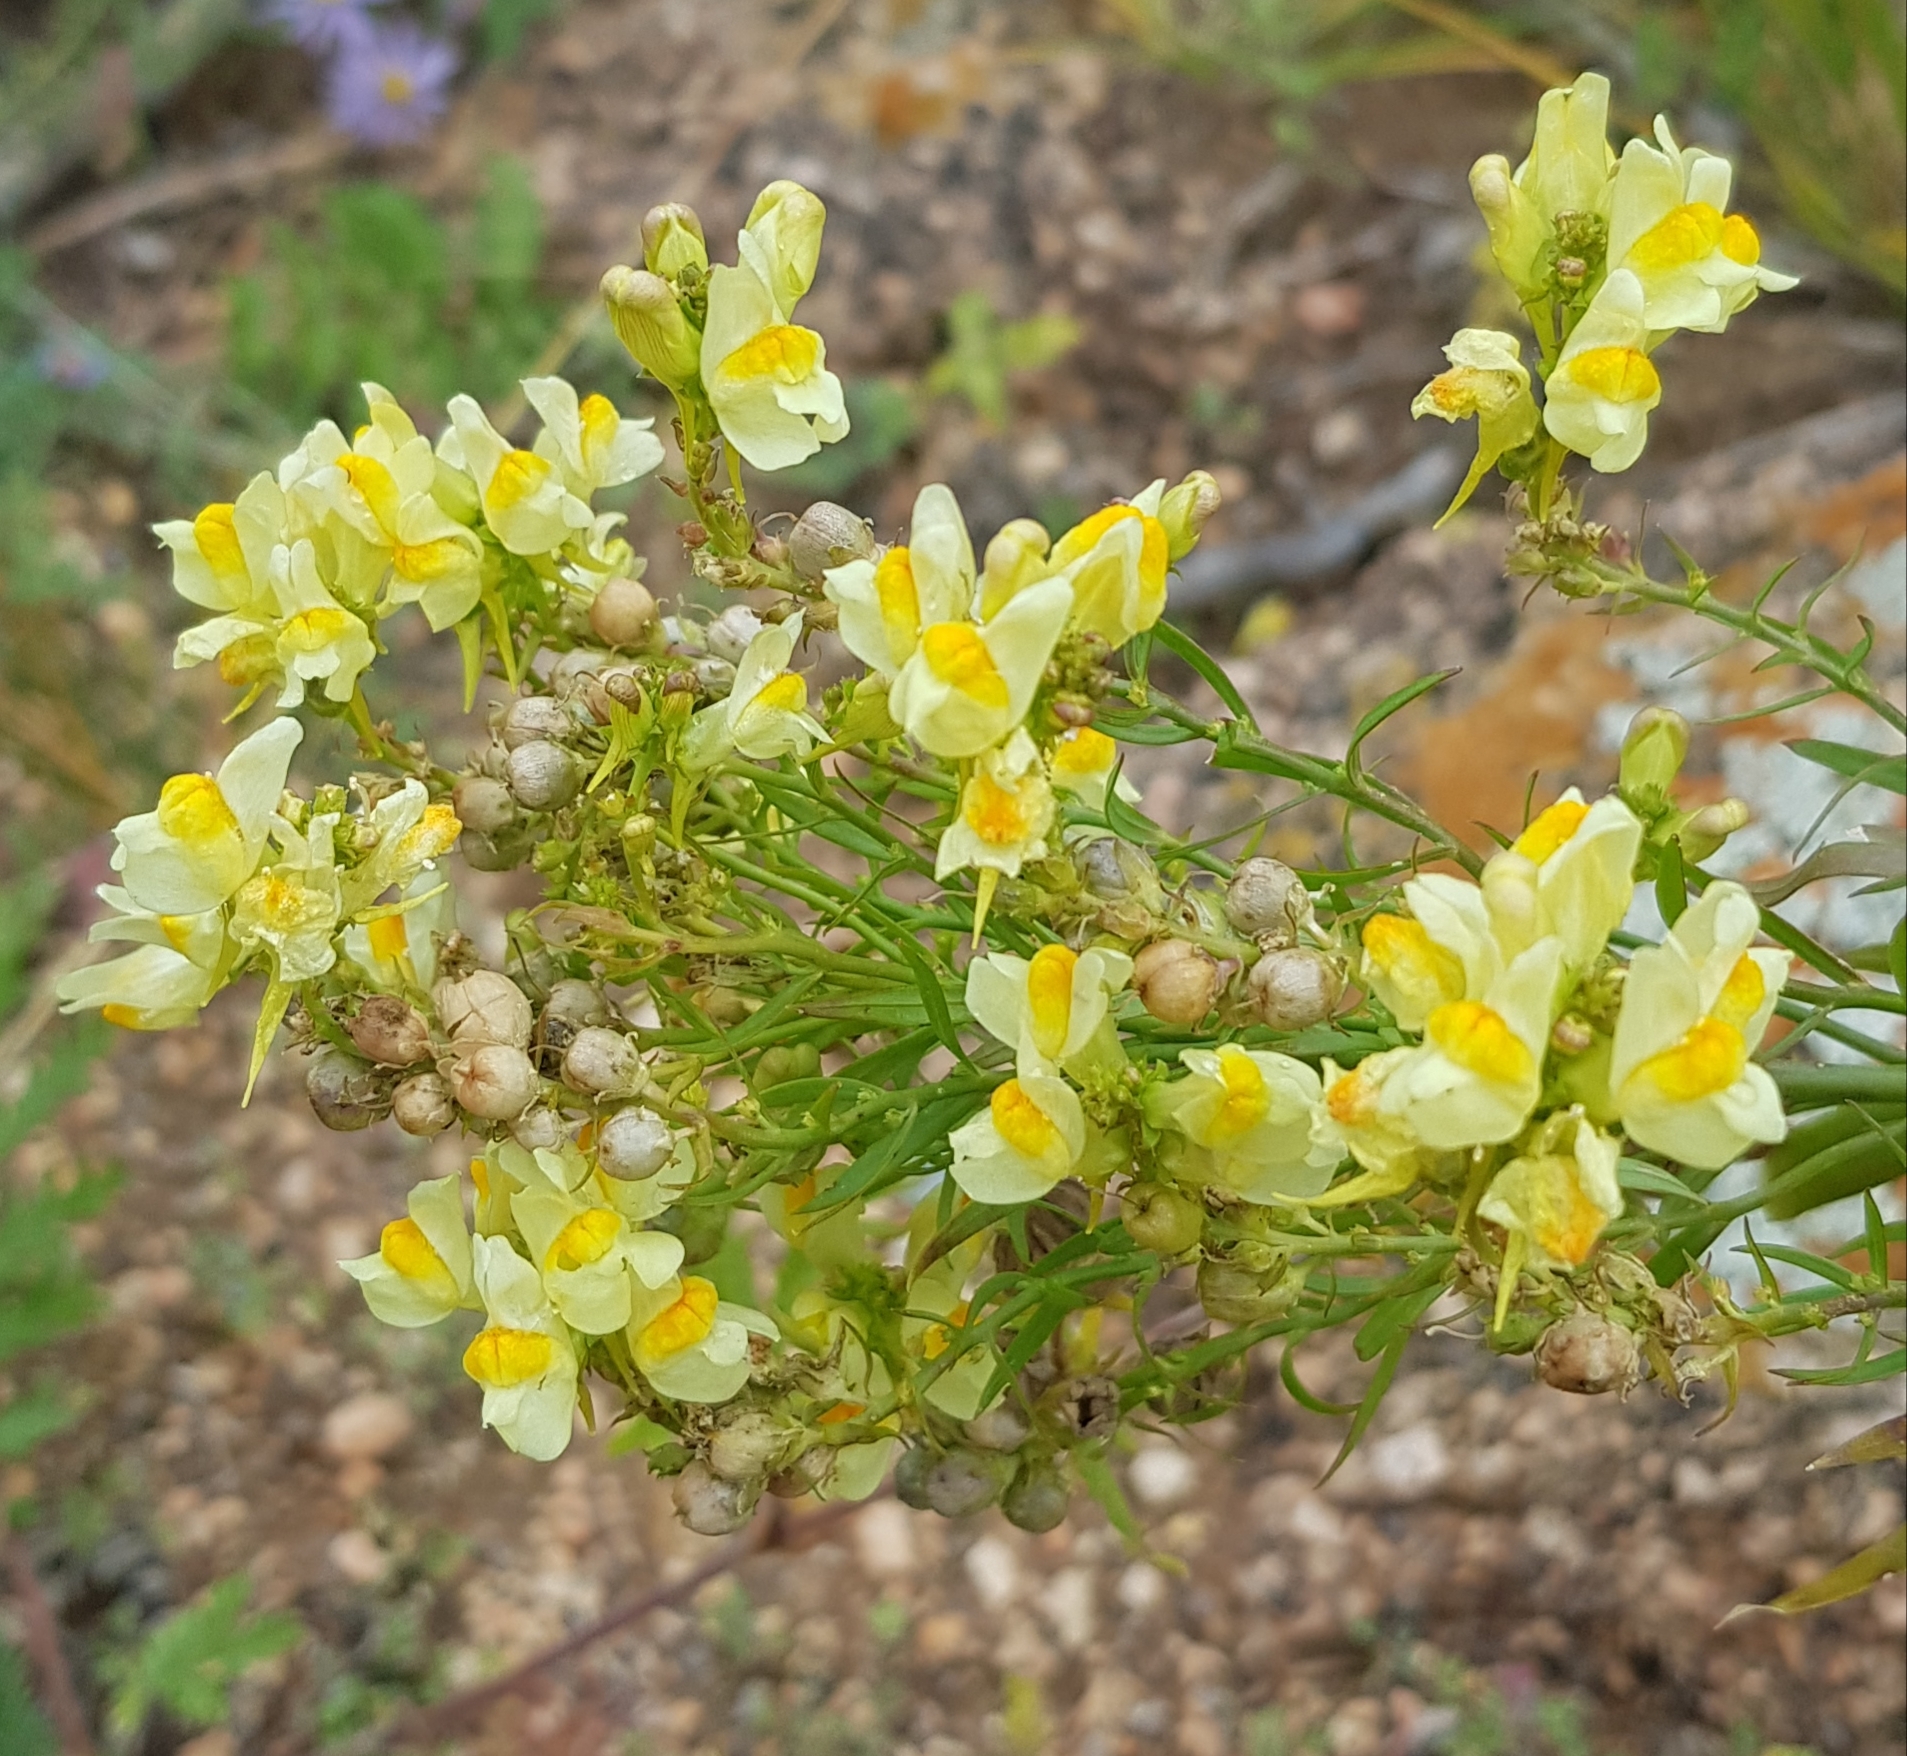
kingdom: Plantae
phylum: Tracheophyta
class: Magnoliopsida
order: Lamiales
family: Plantaginaceae
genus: Linaria
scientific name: Linaria acutiloba
